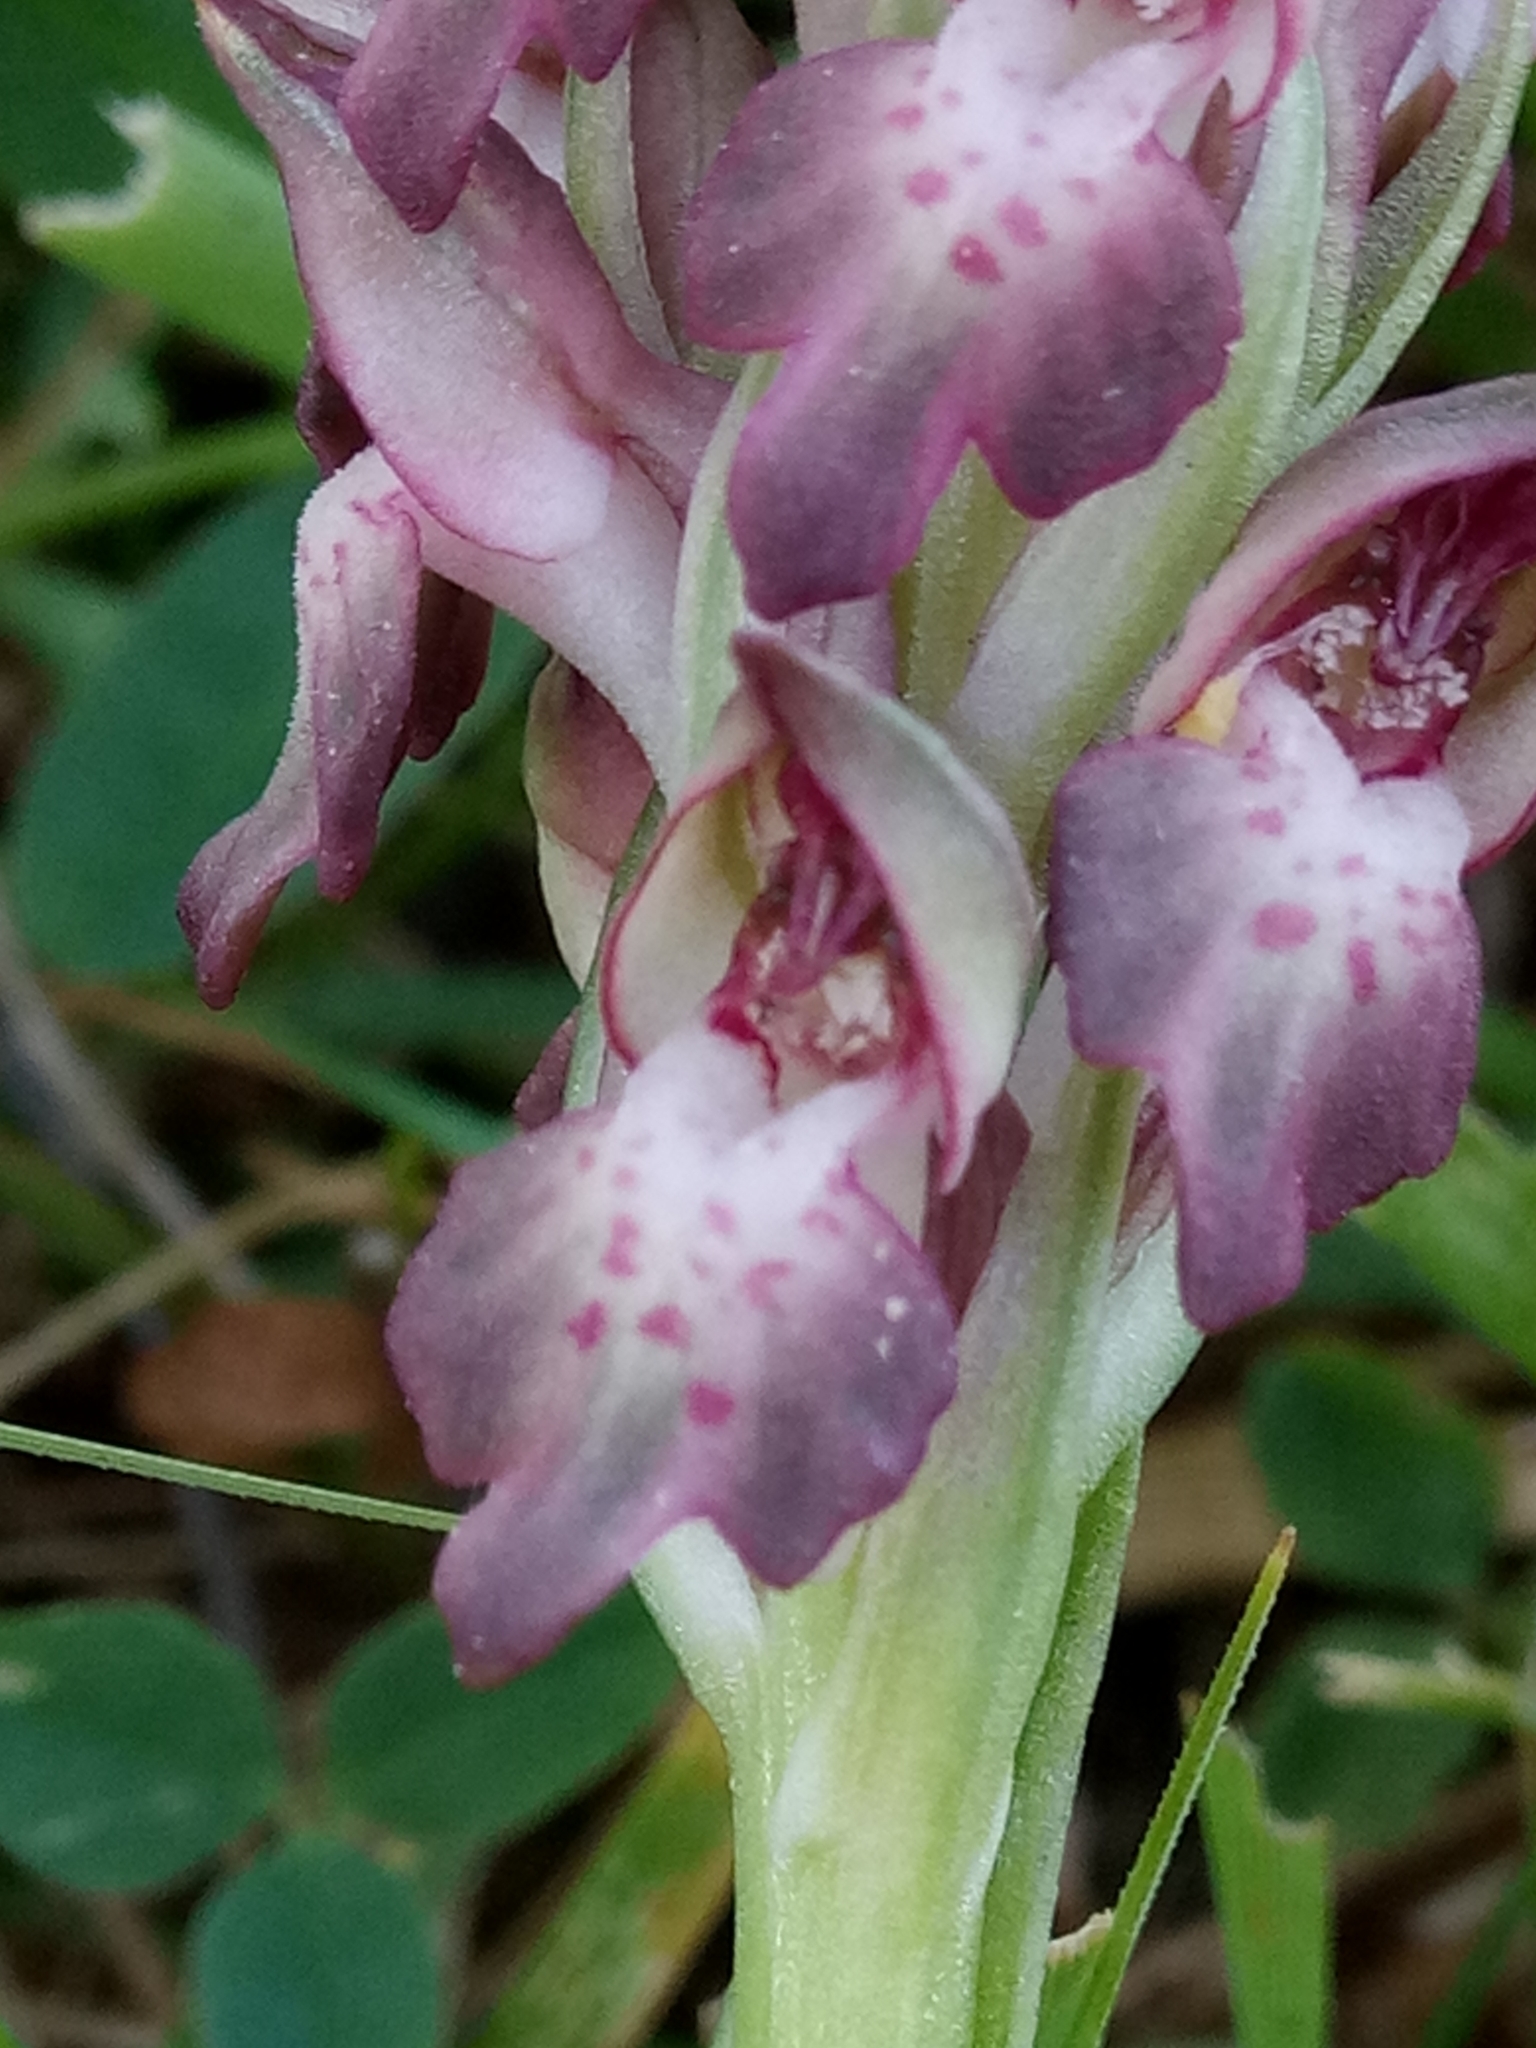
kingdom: Plantae
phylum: Tracheophyta
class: Liliopsida
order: Asparagales
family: Orchidaceae
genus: Anacamptis
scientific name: Anacamptis coriophora
